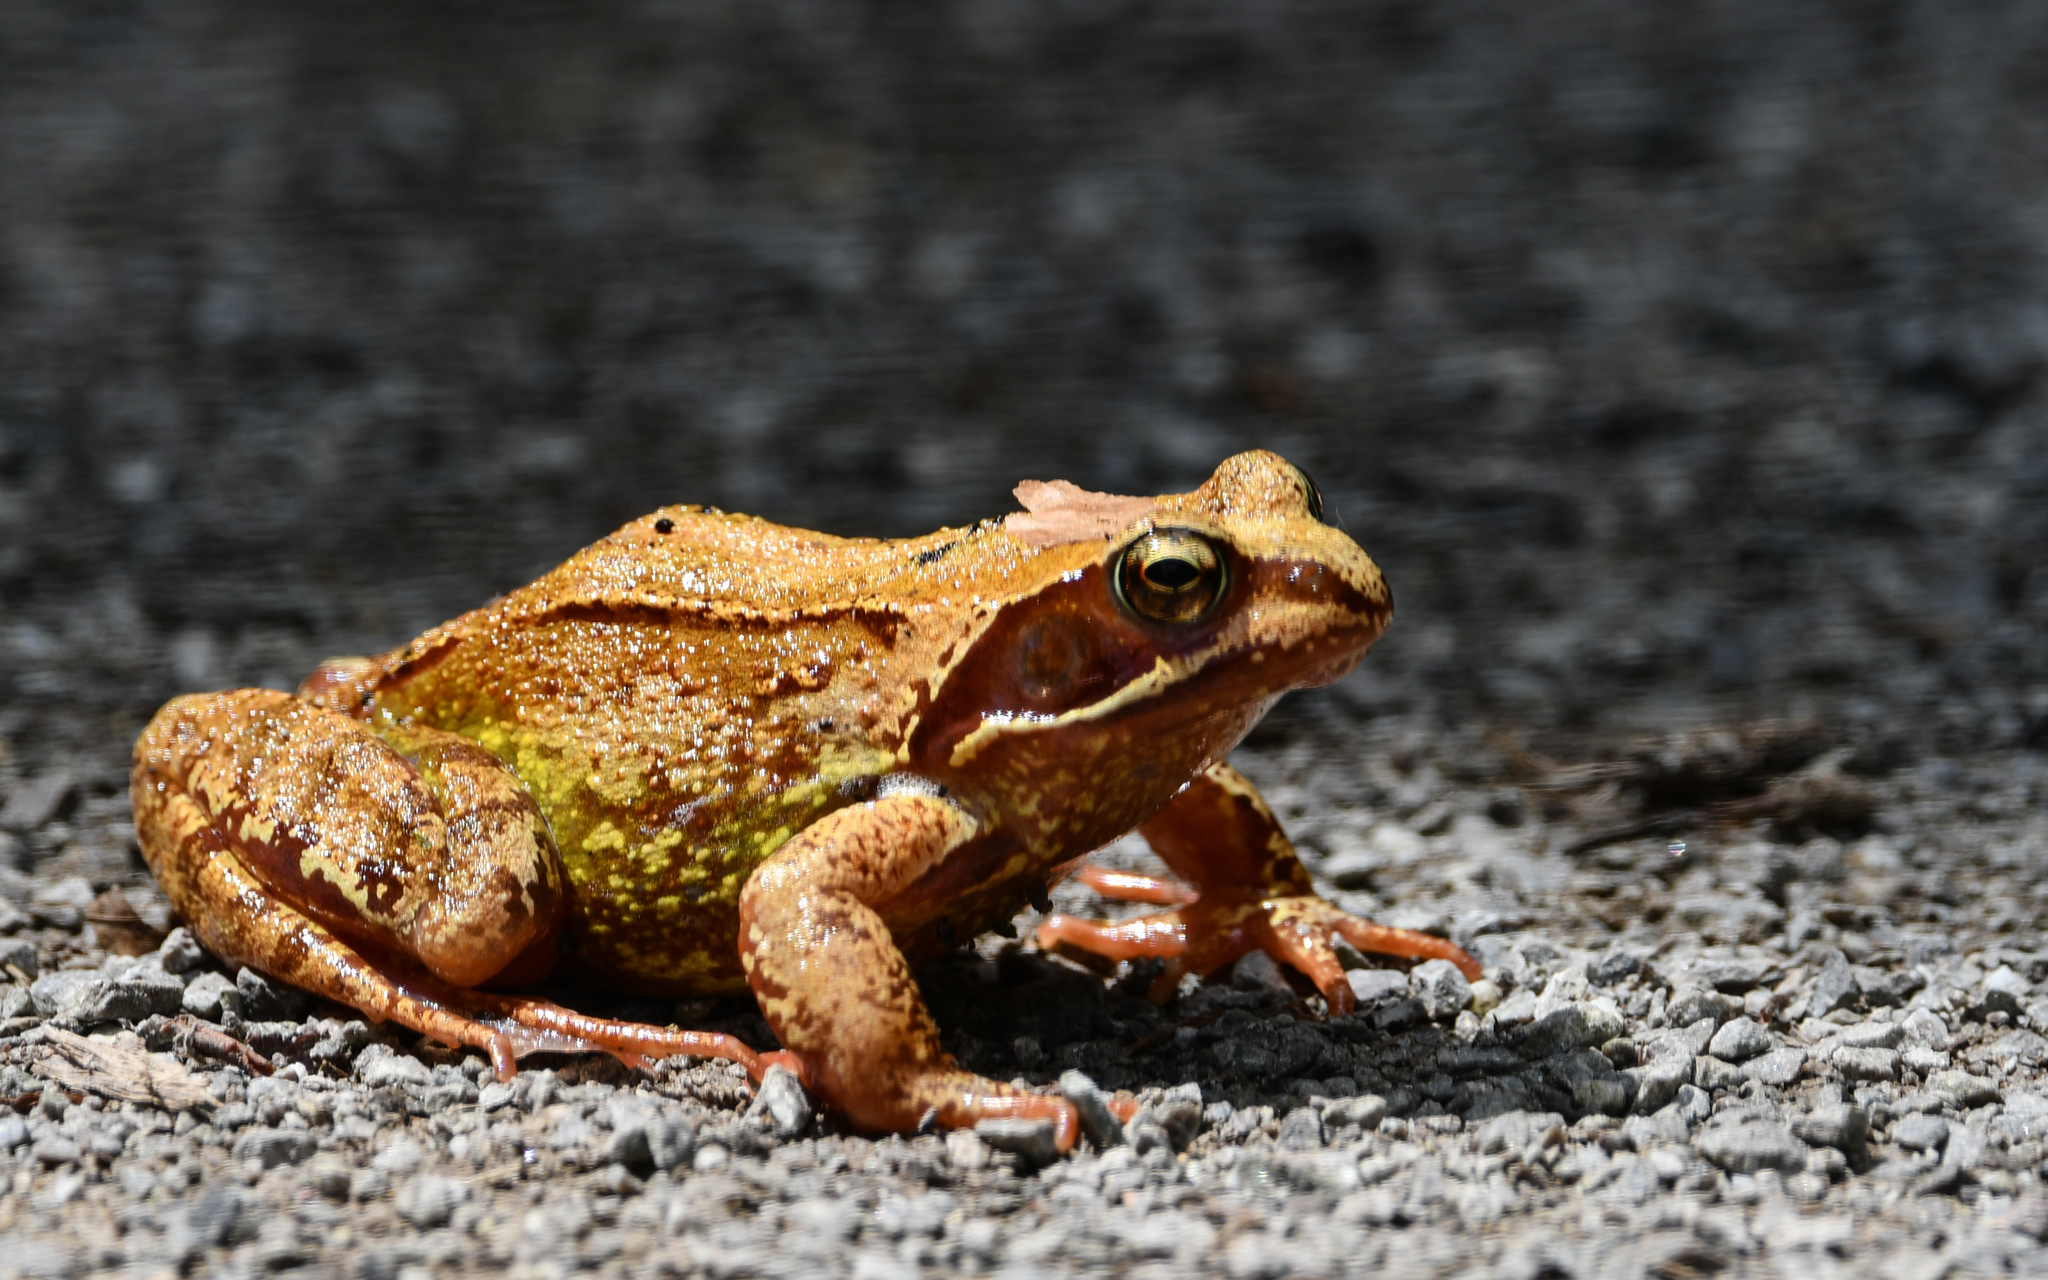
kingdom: Animalia
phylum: Chordata
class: Amphibia
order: Anura
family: Ranidae
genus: Rana
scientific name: Rana temporaria
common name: Common frog
